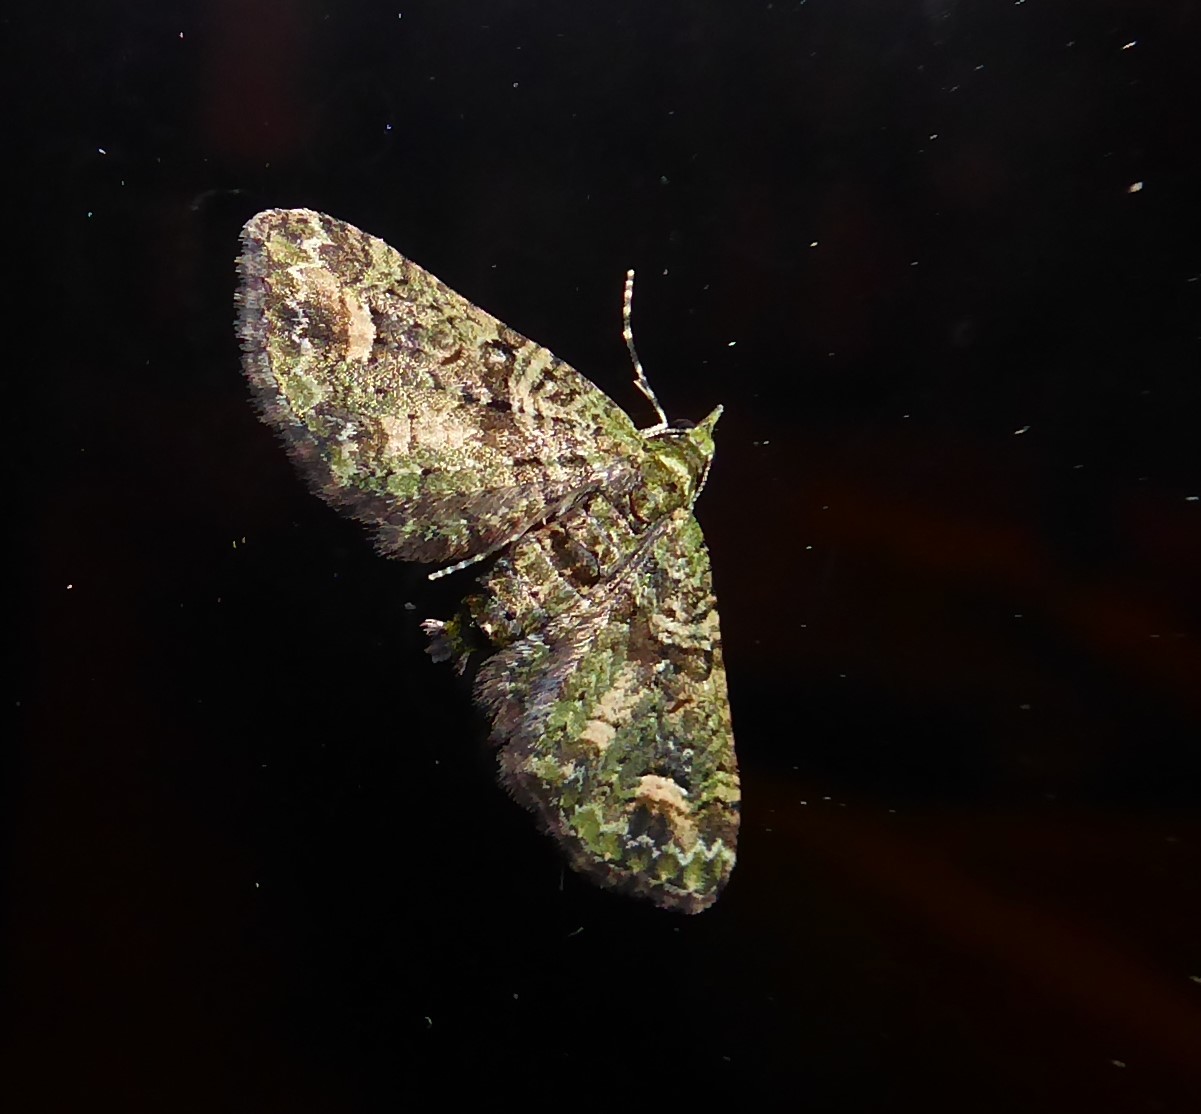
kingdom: Animalia
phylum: Arthropoda
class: Insecta
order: Lepidoptera
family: Geometridae
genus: Idaea
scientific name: Idaea mutanda
